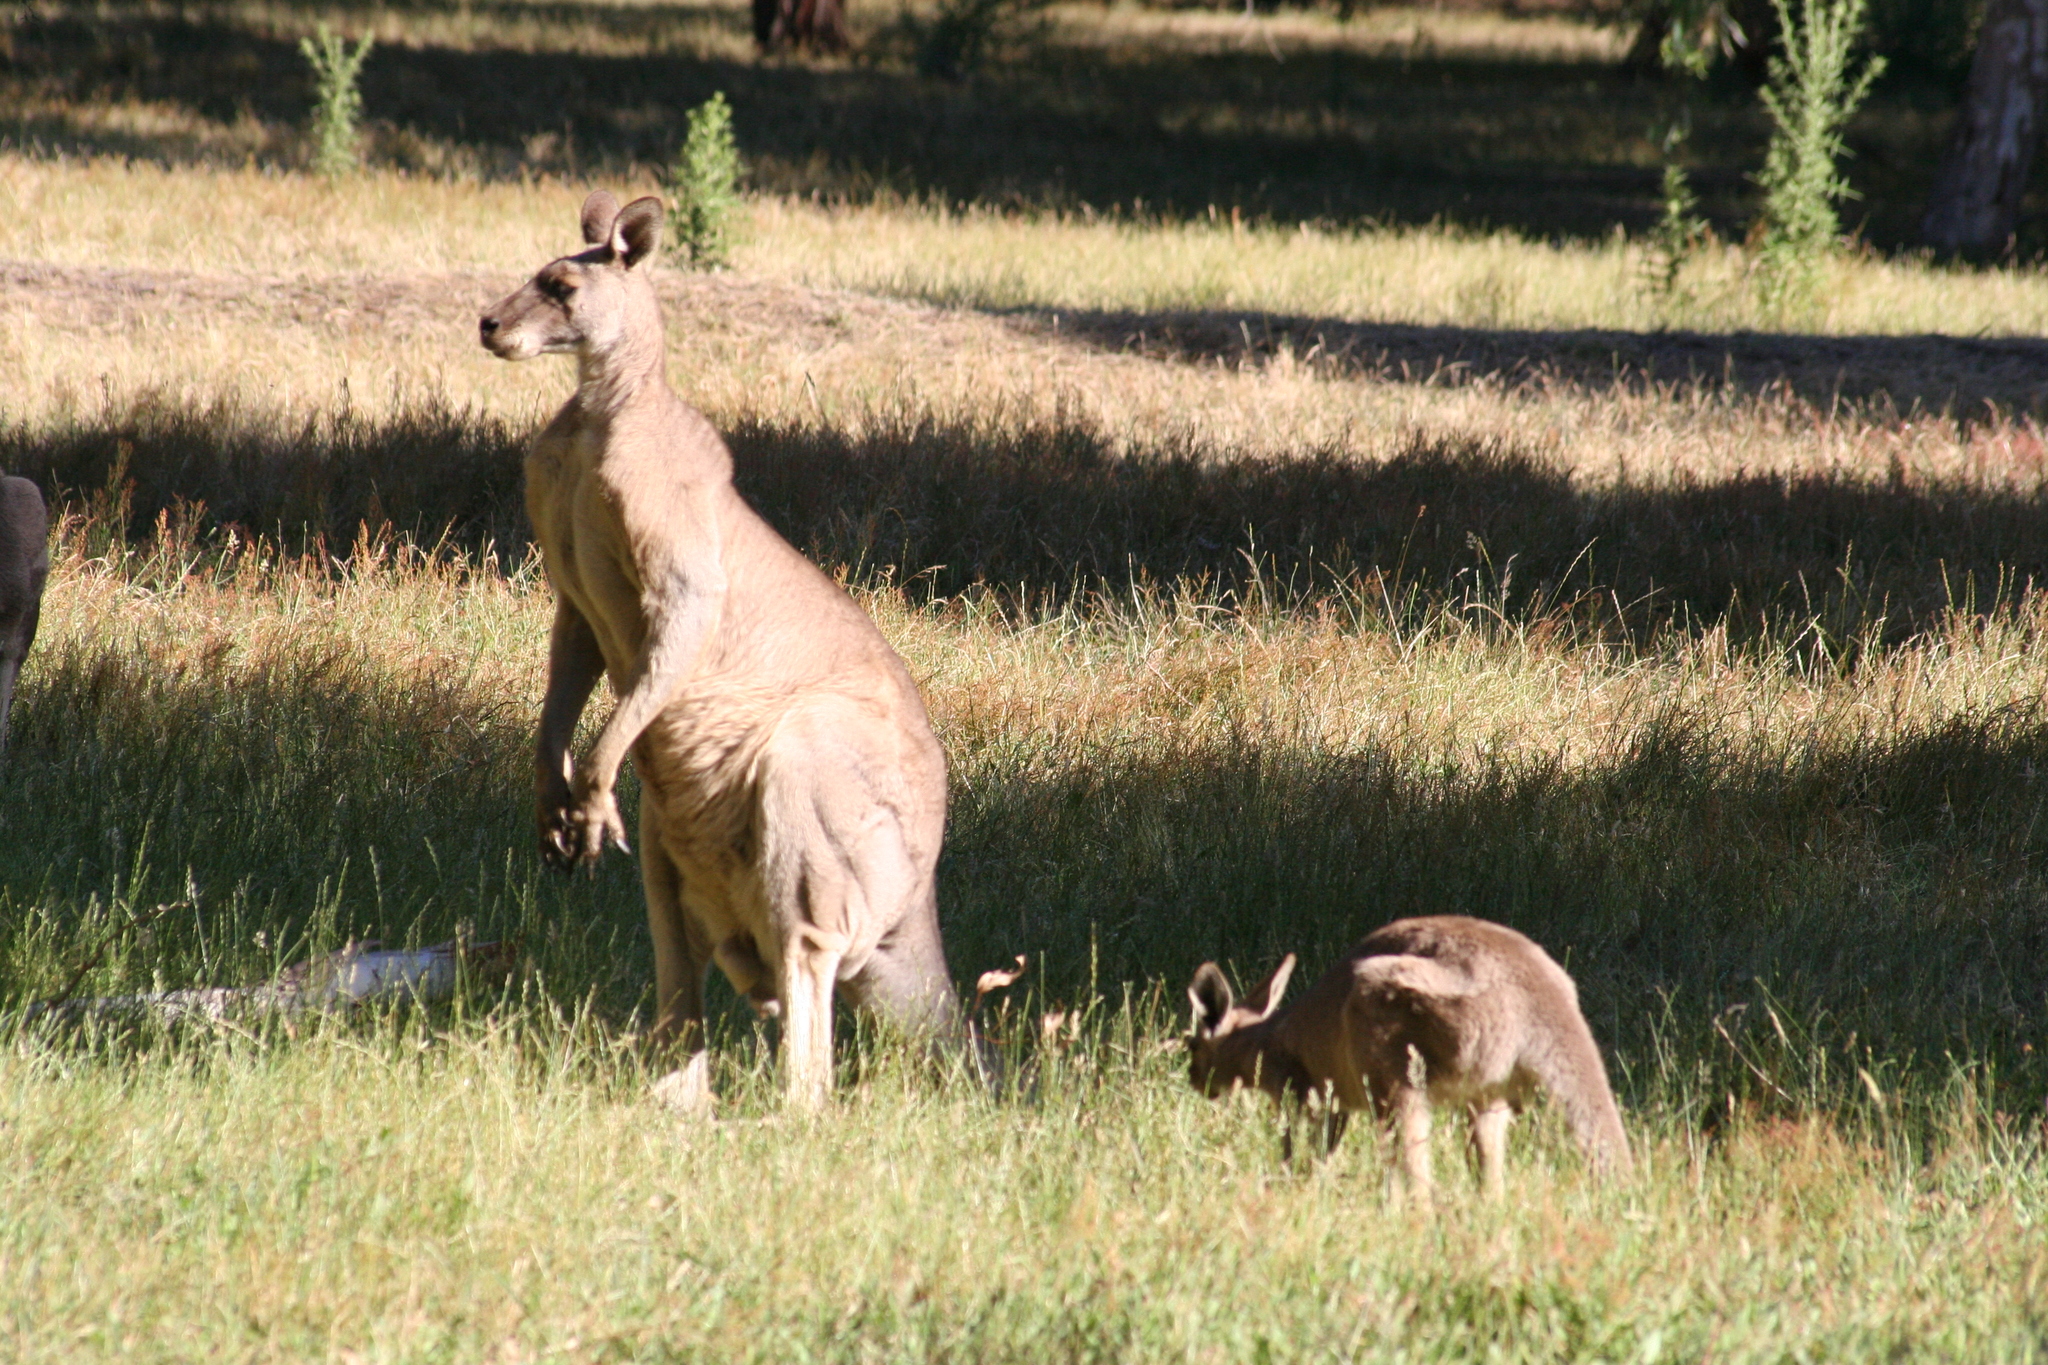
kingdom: Animalia
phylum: Chordata
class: Mammalia
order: Diprotodontia
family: Macropodidae
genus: Macropus
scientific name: Macropus giganteus
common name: Eastern grey kangaroo
